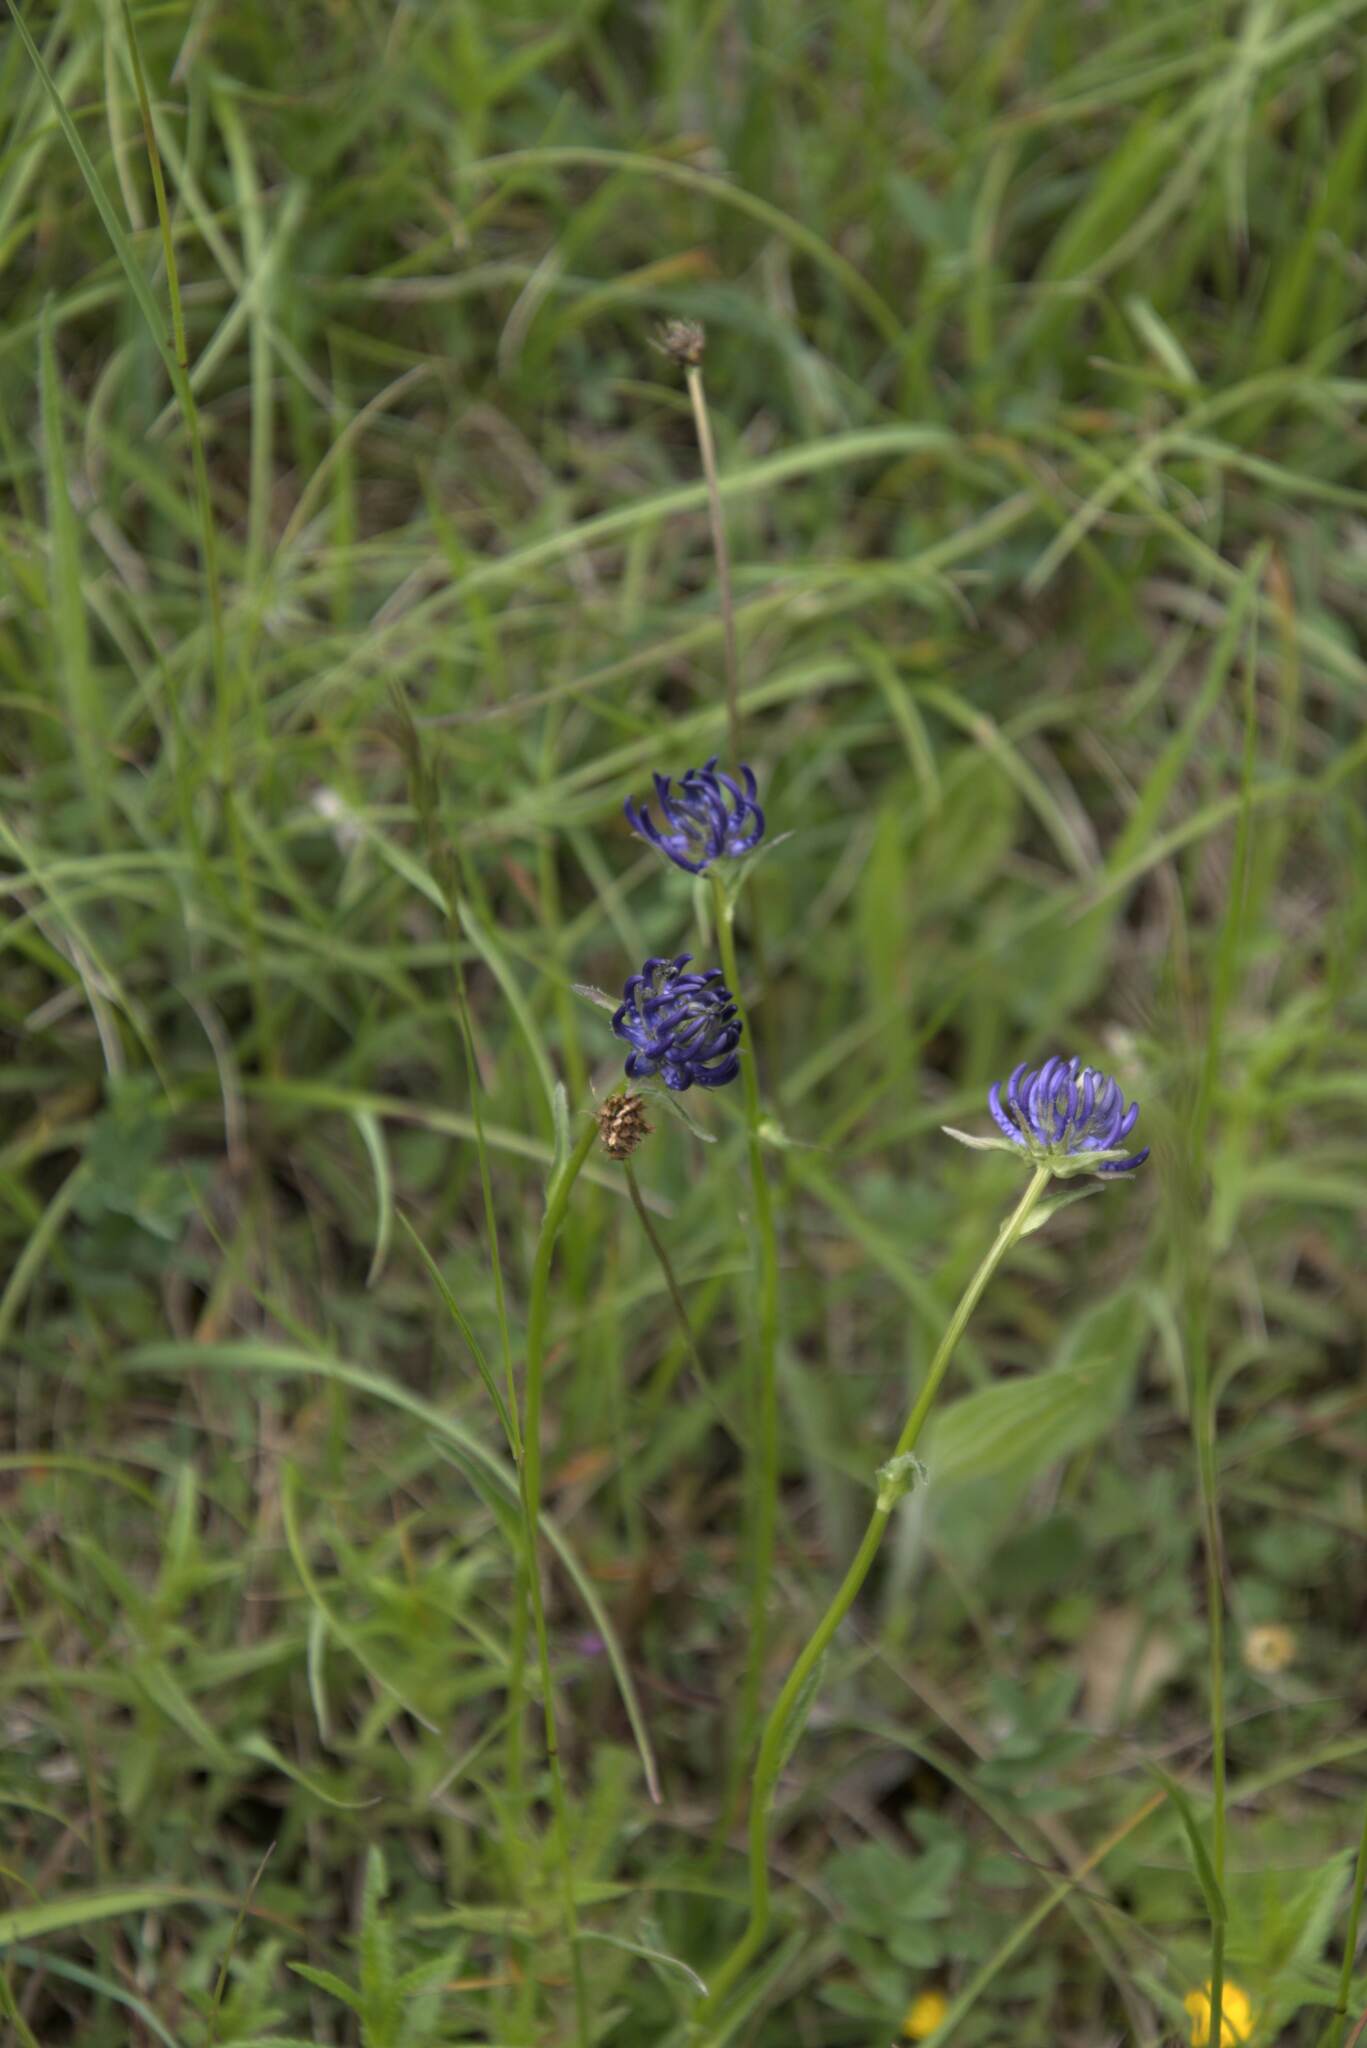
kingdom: Plantae
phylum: Tracheophyta
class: Magnoliopsida
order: Asterales
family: Campanulaceae
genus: Phyteuma
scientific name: Phyteuma orbiculare
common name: Round-headed rampion
